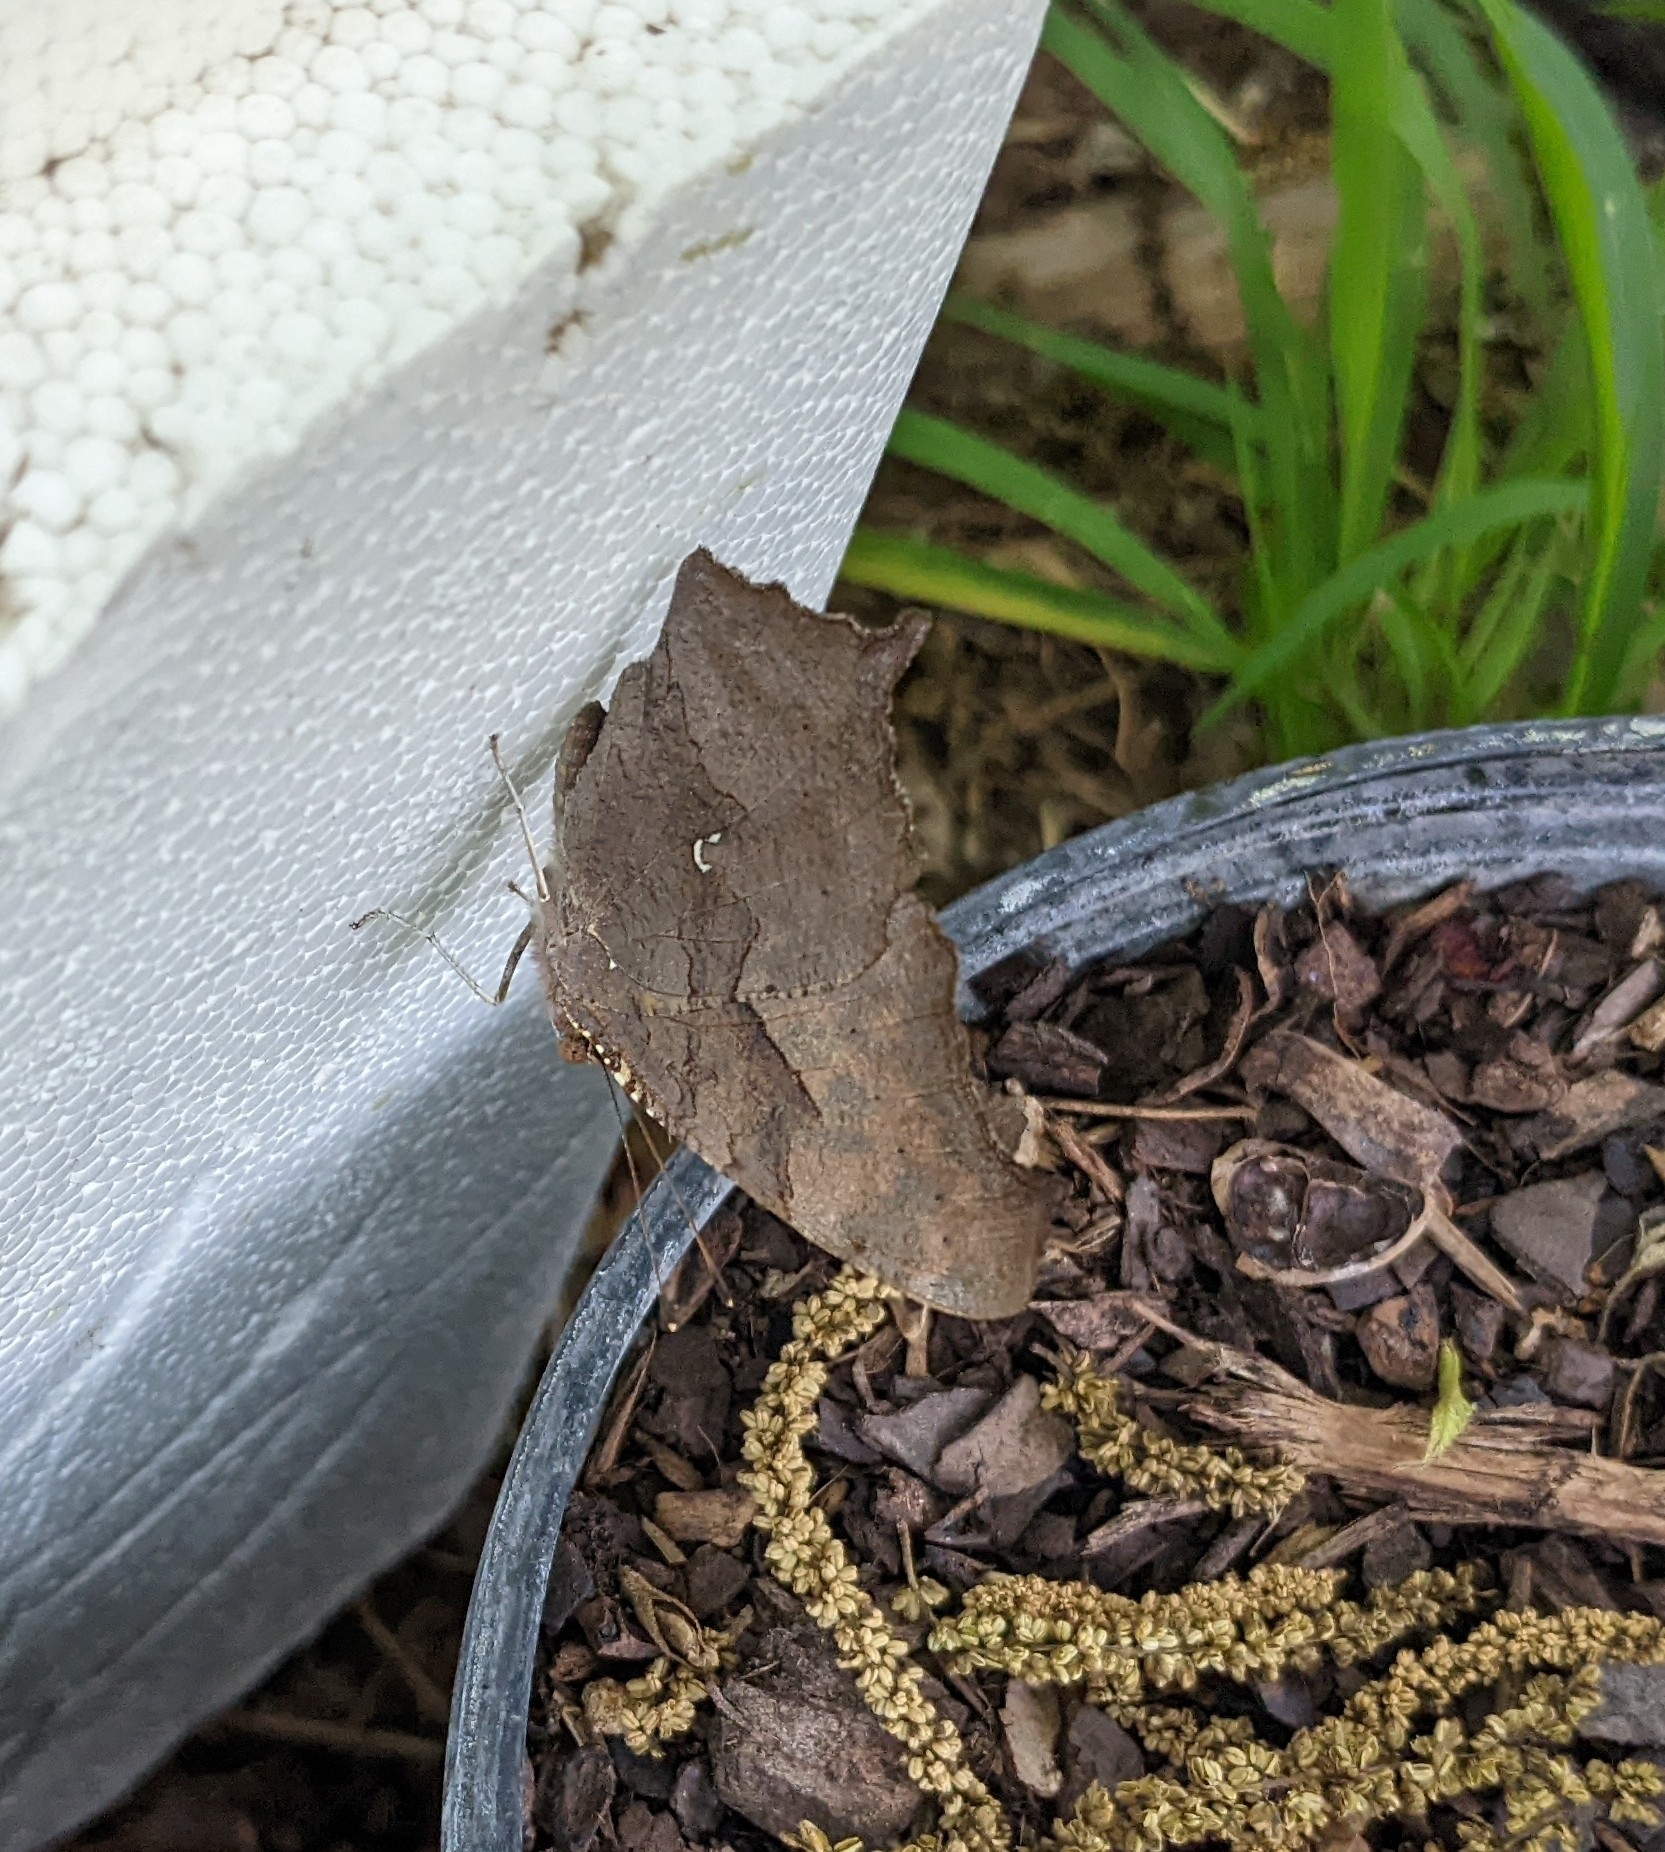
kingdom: Animalia
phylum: Arthropoda
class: Insecta
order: Lepidoptera
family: Nymphalidae
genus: Polygonia
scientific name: Polygonia interrogationis
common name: Question mark
